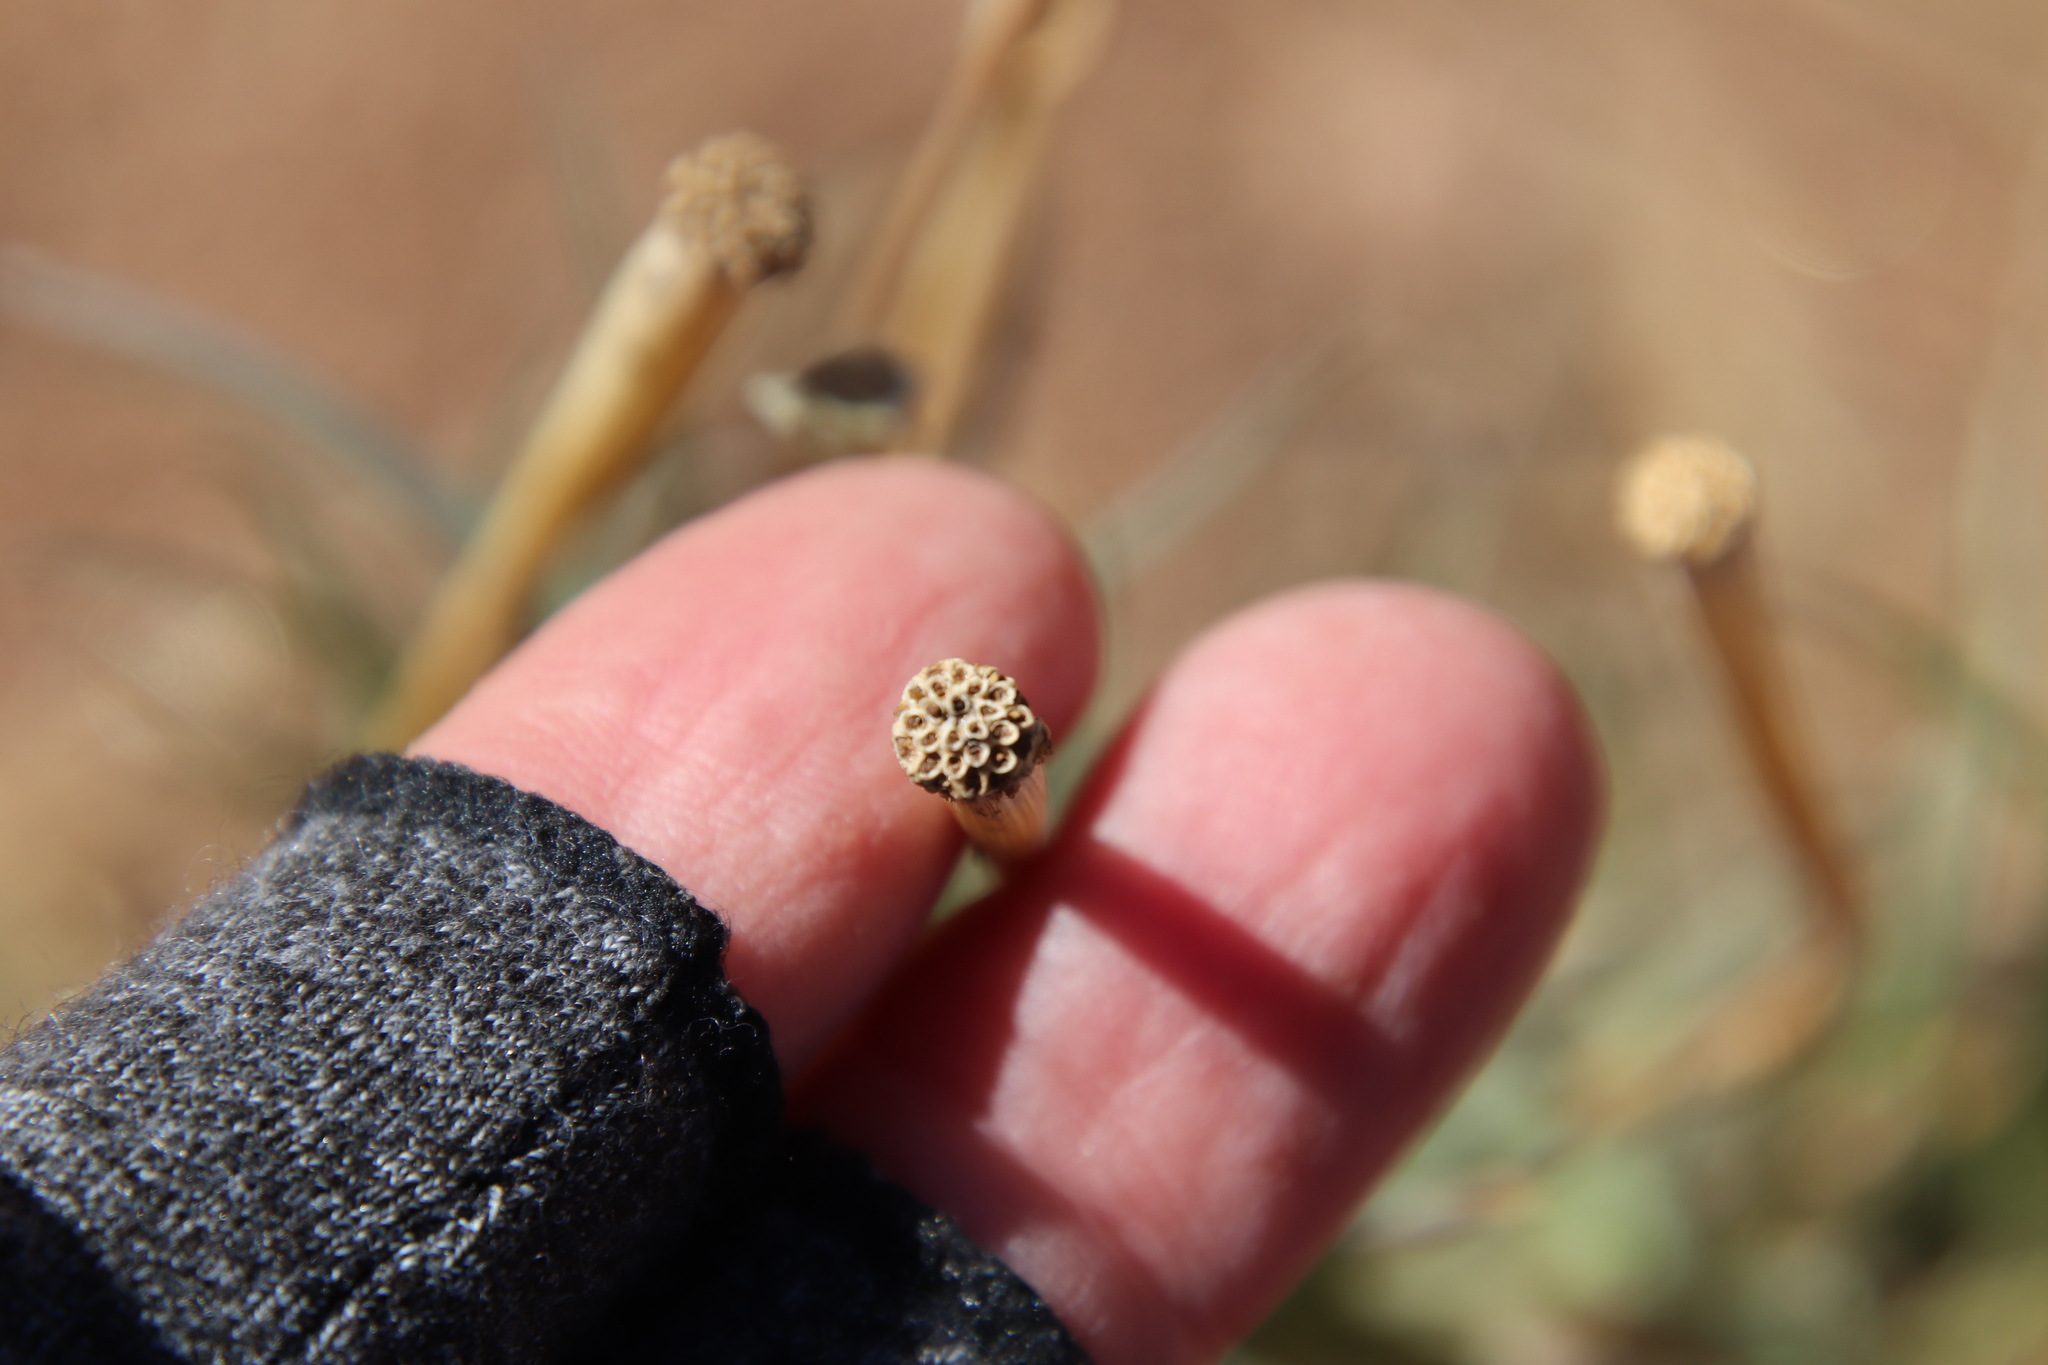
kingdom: Plantae
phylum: Tracheophyta
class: Magnoliopsida
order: Asterales
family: Asteraceae
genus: Tragopogon
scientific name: Tragopogon dubius
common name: Yellow salsify
